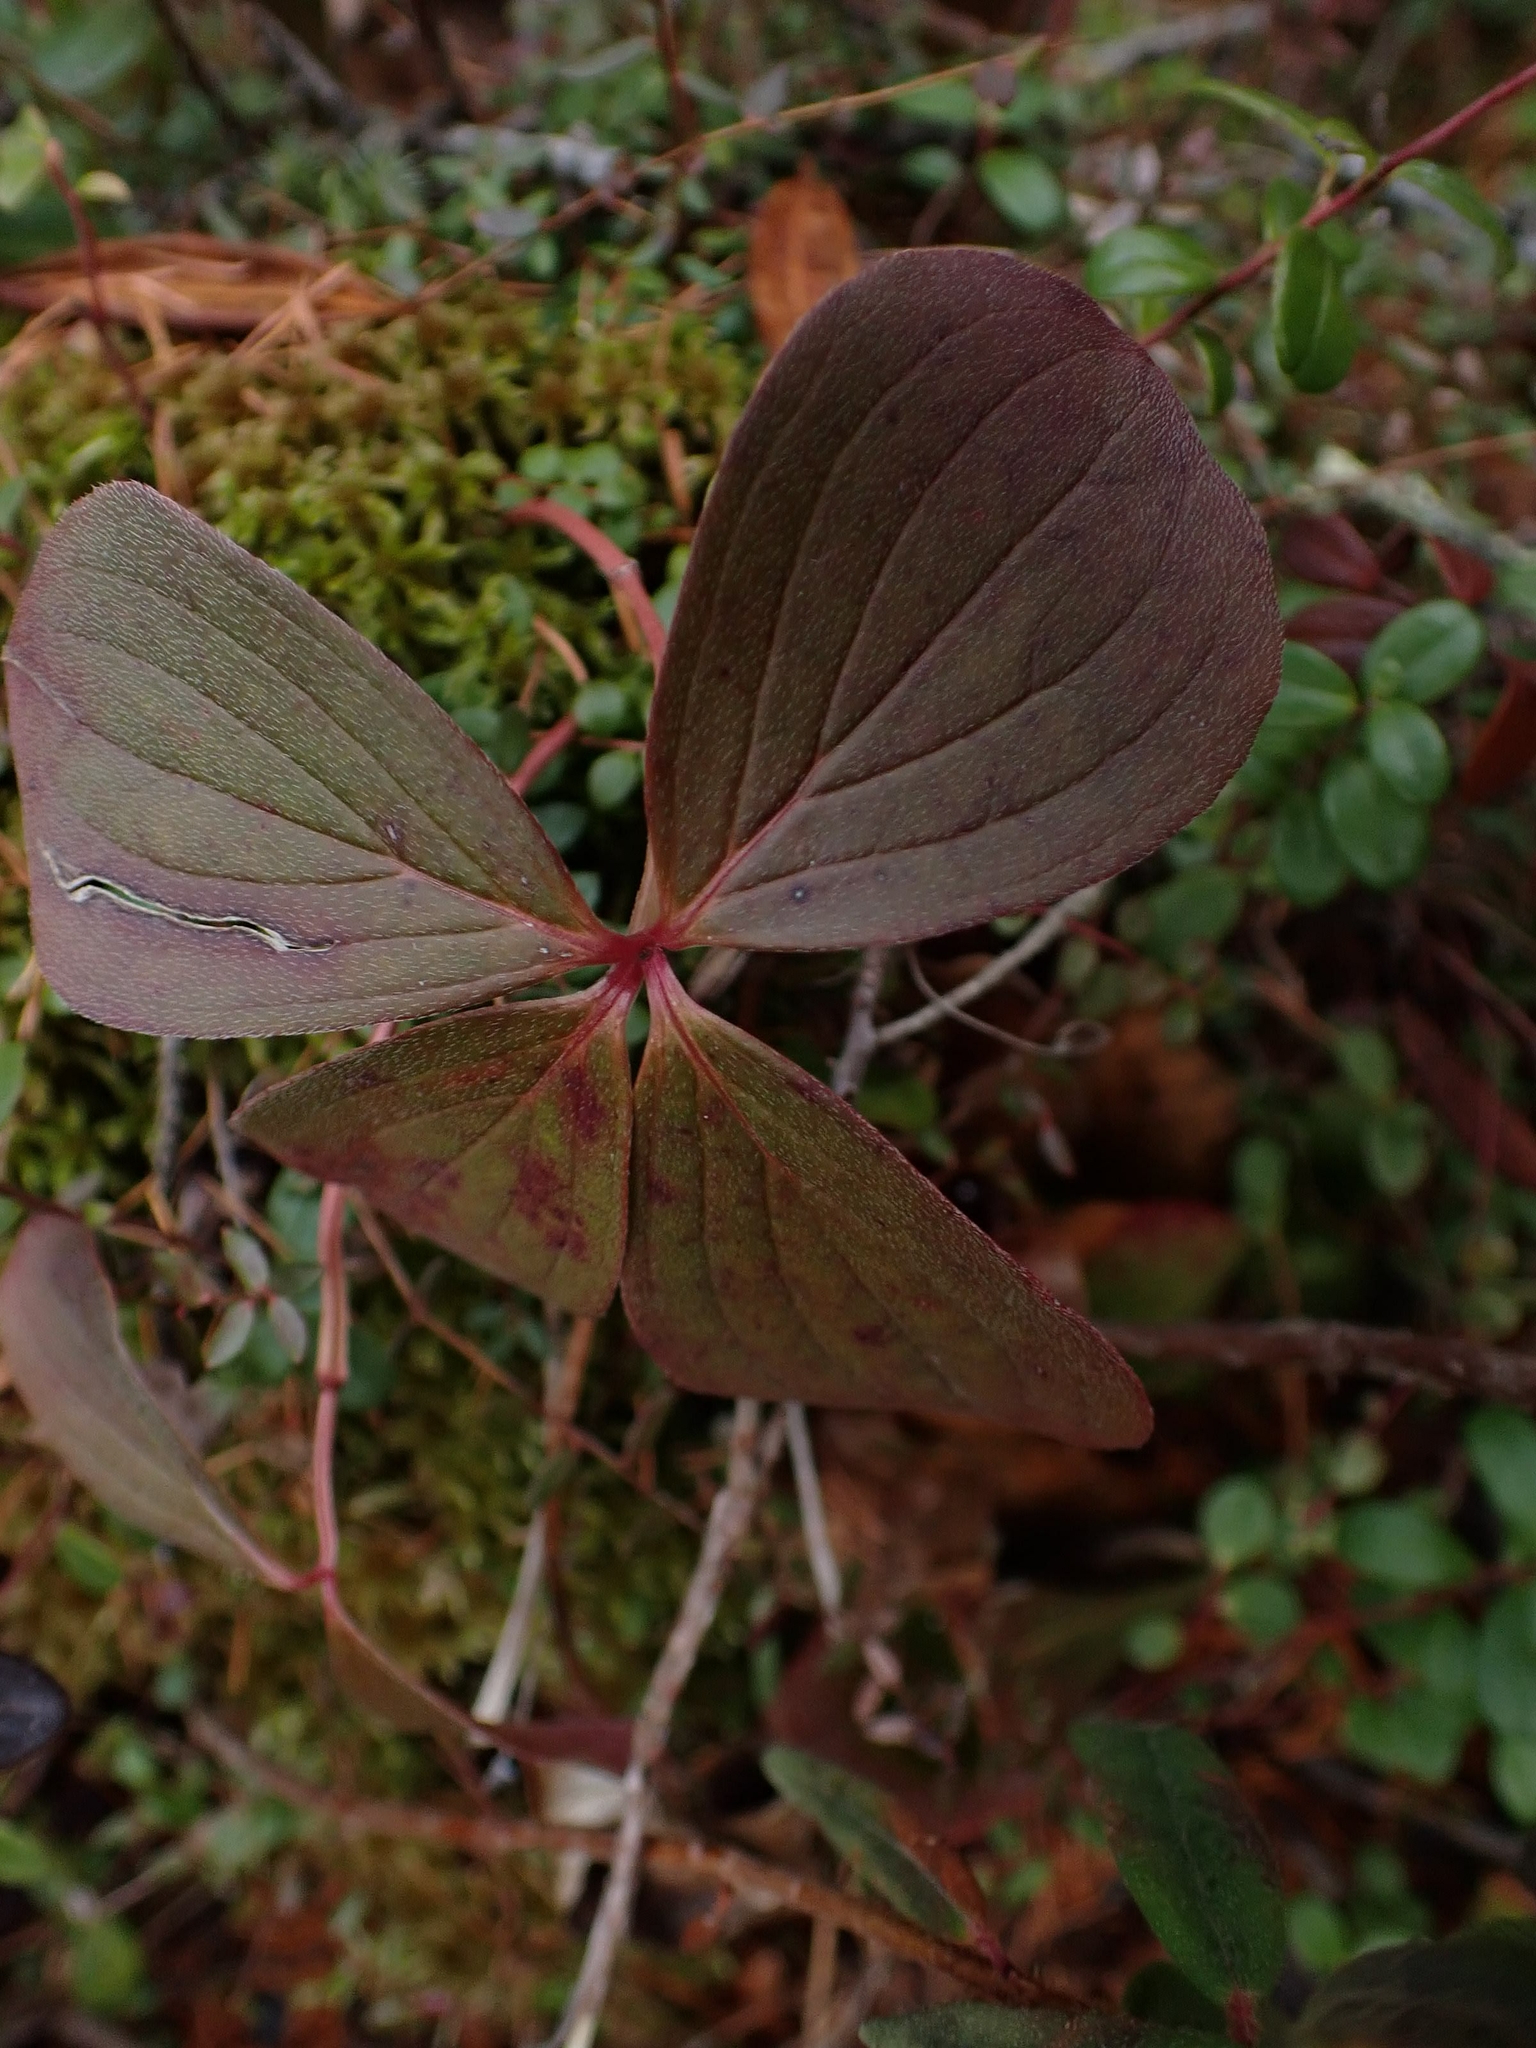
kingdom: Plantae
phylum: Tracheophyta
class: Magnoliopsida
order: Cornales
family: Cornaceae
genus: Cornus
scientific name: Cornus canadensis
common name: Creeping dogwood
